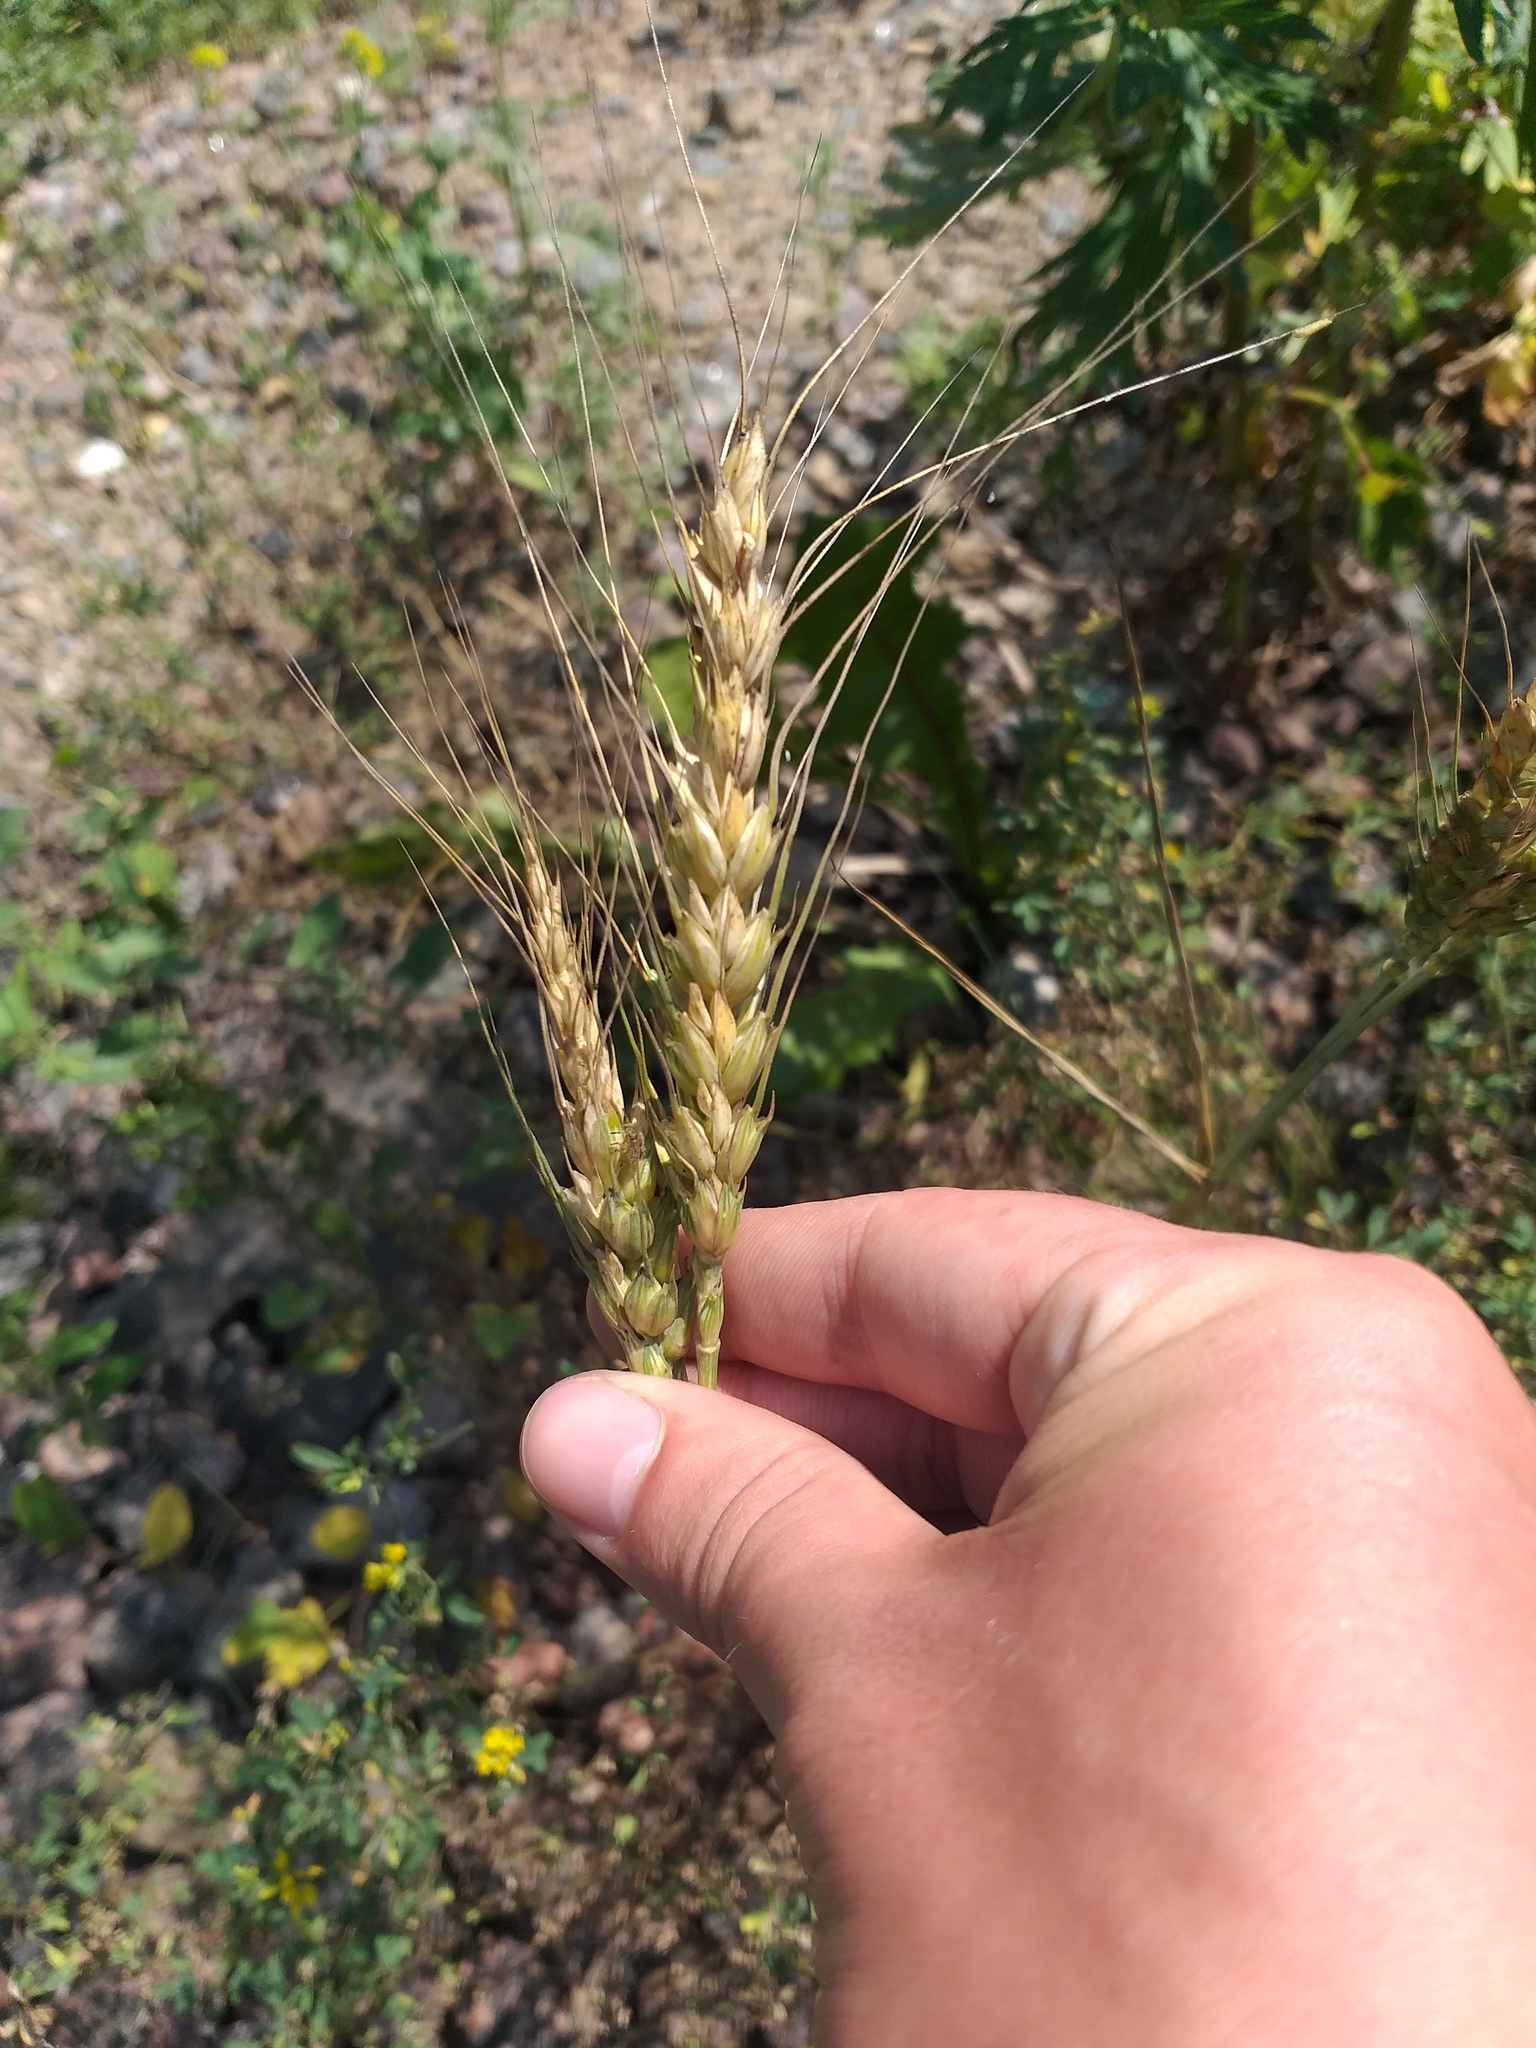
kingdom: Plantae
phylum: Tracheophyta
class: Liliopsida
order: Poales
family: Poaceae
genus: Triticum
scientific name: Triticum aestivum
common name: Common wheat
